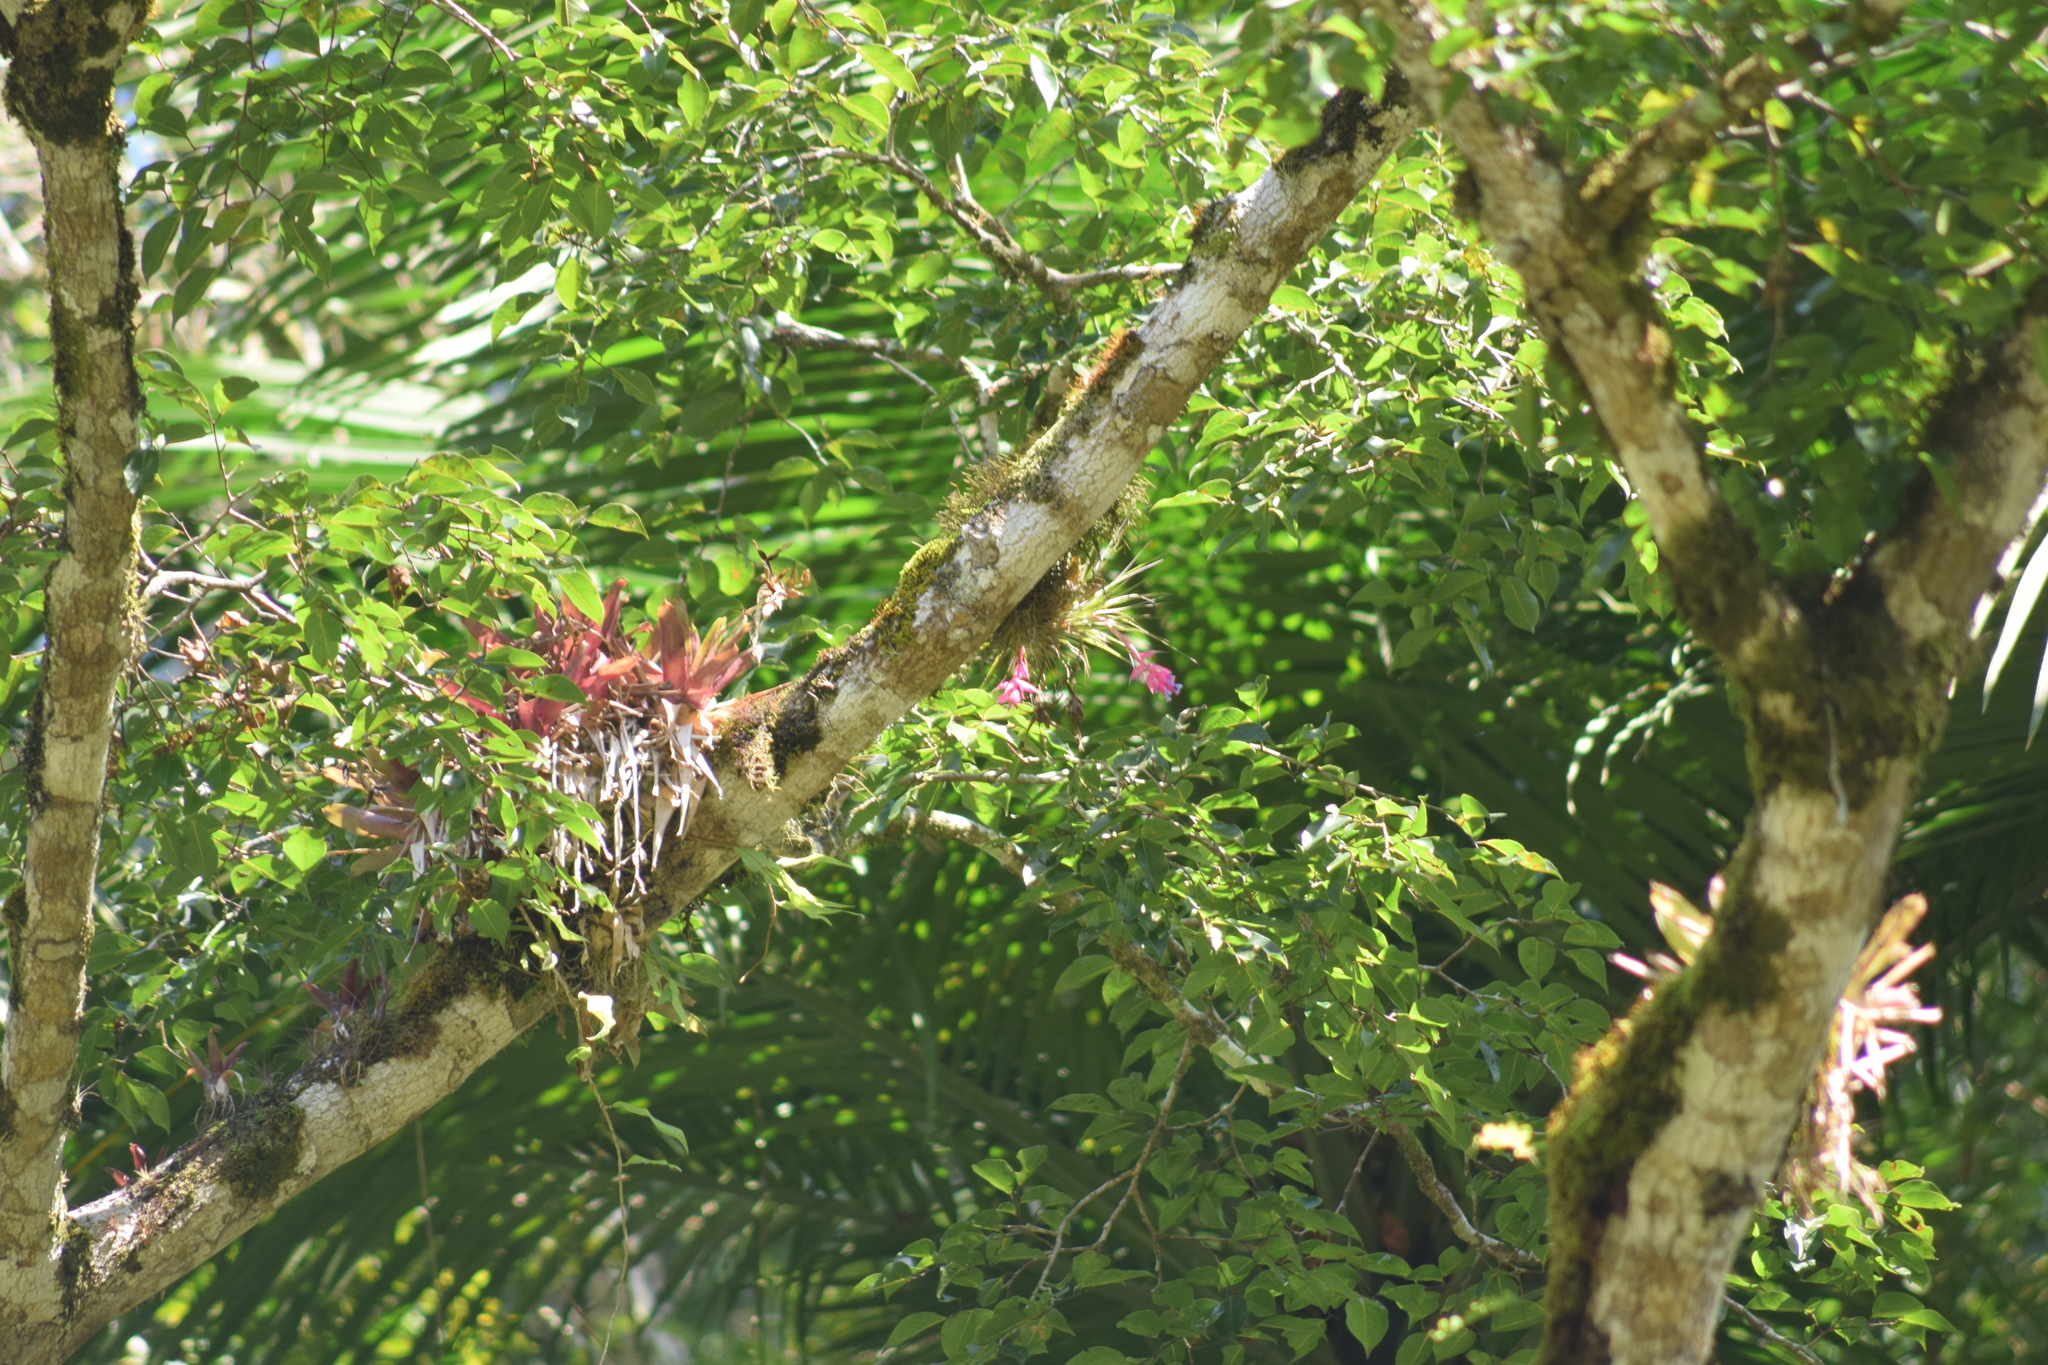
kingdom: Plantae
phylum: Tracheophyta
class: Liliopsida
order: Poales
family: Bromeliaceae
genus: Tillandsia
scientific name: Tillandsia stricta
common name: Airplant
